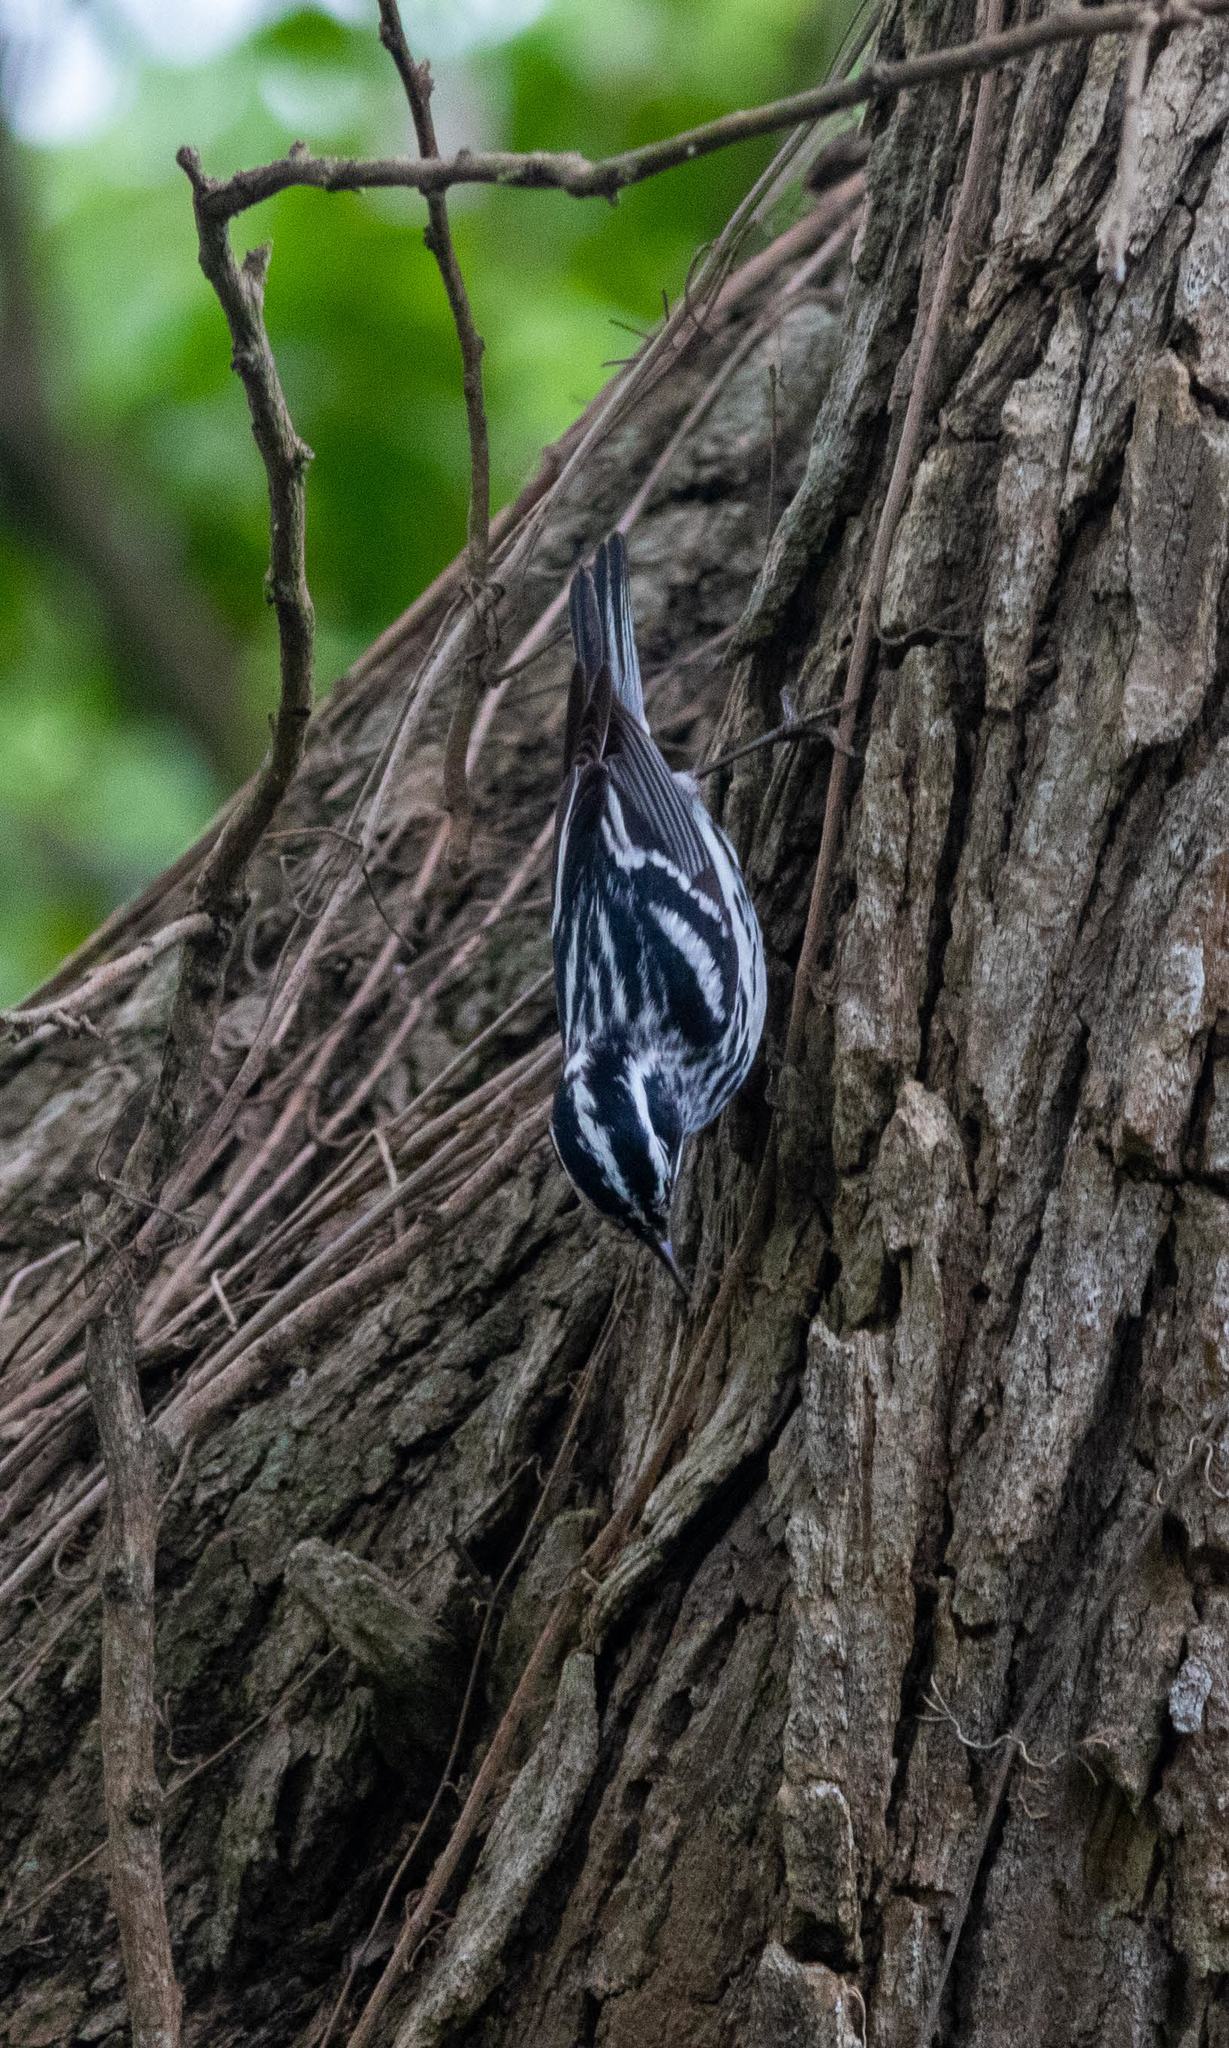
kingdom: Animalia
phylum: Chordata
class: Aves
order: Passeriformes
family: Parulidae
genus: Mniotilta
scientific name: Mniotilta varia
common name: Black-and-white warbler
